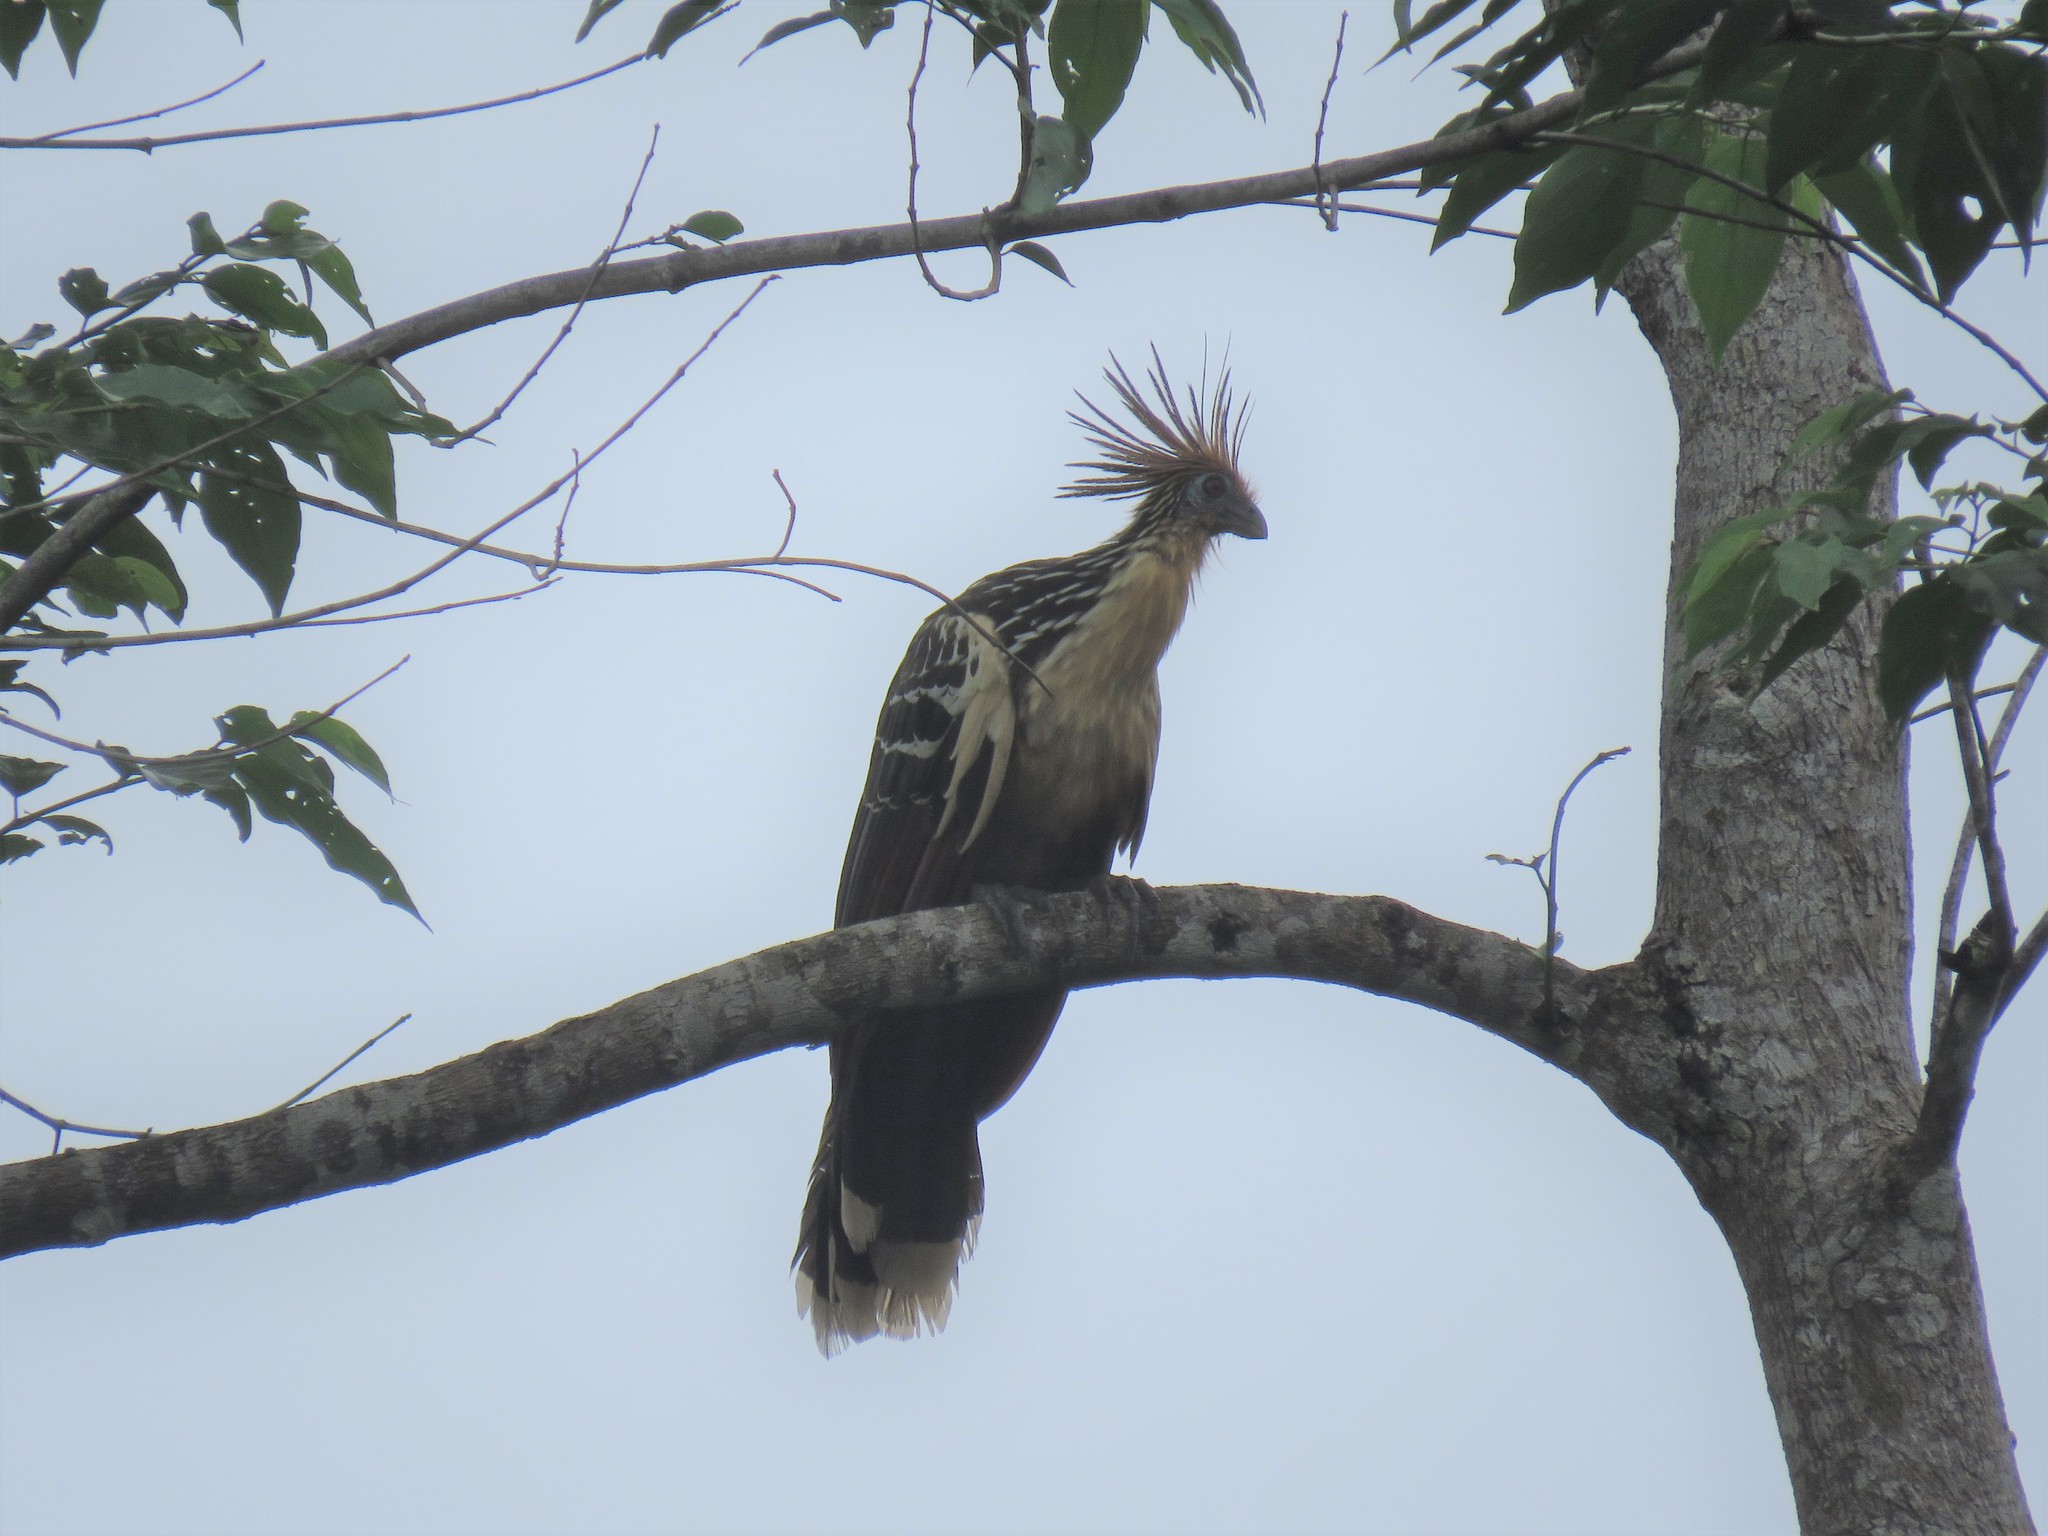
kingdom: Animalia
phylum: Chordata
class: Aves
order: Opisthocomiformes
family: Opisthocomidae
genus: Opisthocomus
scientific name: Opisthocomus hoazin
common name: Hoatzin
